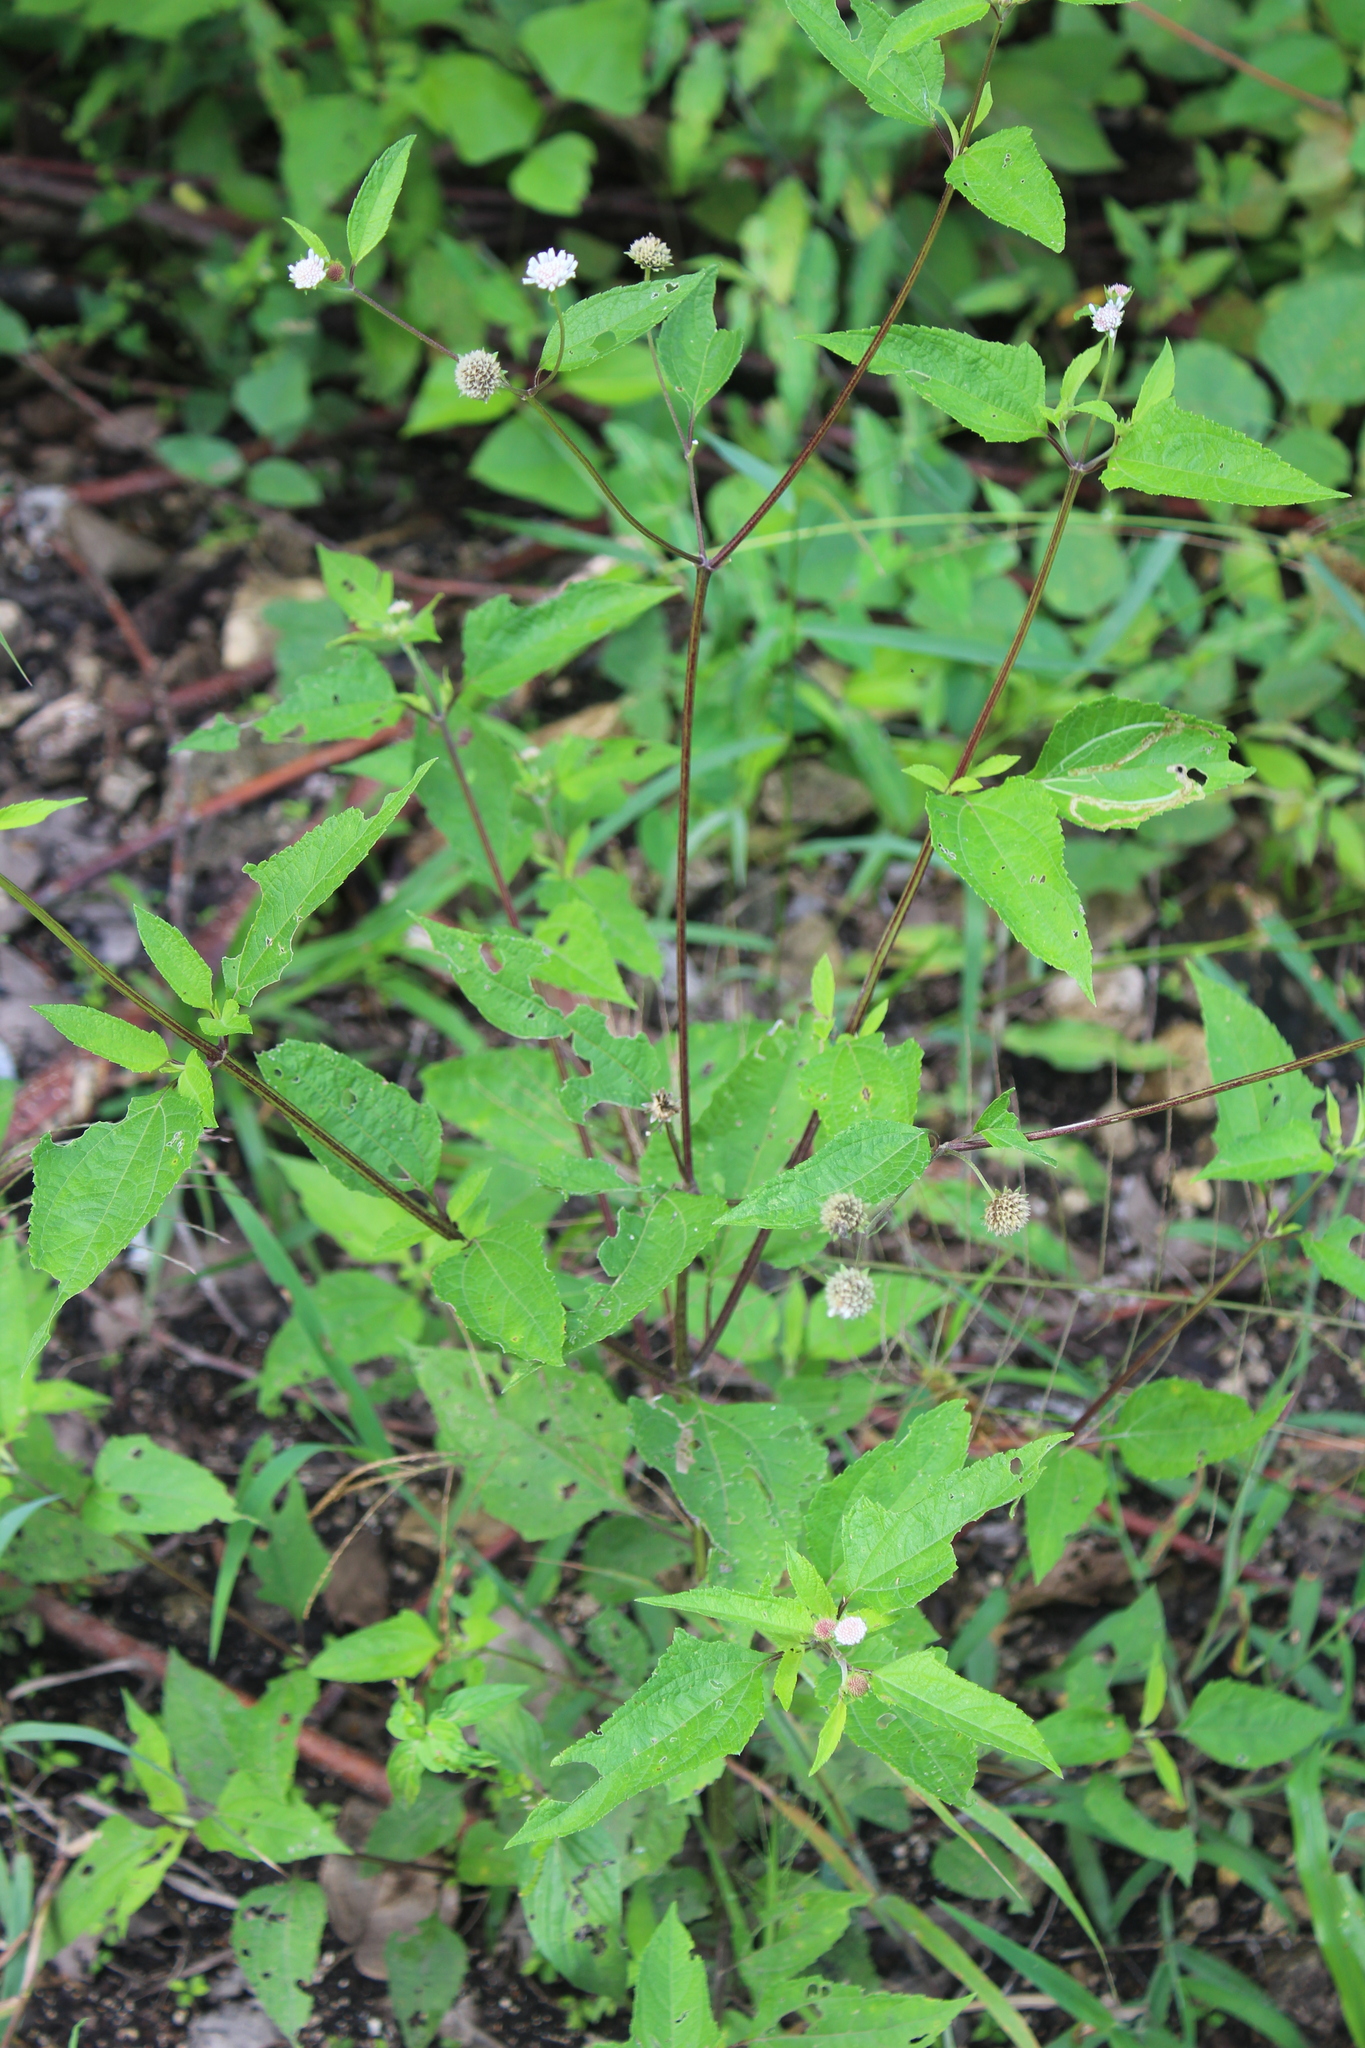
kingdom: Plantae
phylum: Tracheophyta
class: Magnoliopsida
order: Asterales
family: Asteraceae
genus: Melanthera
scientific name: Melanthera nivea
